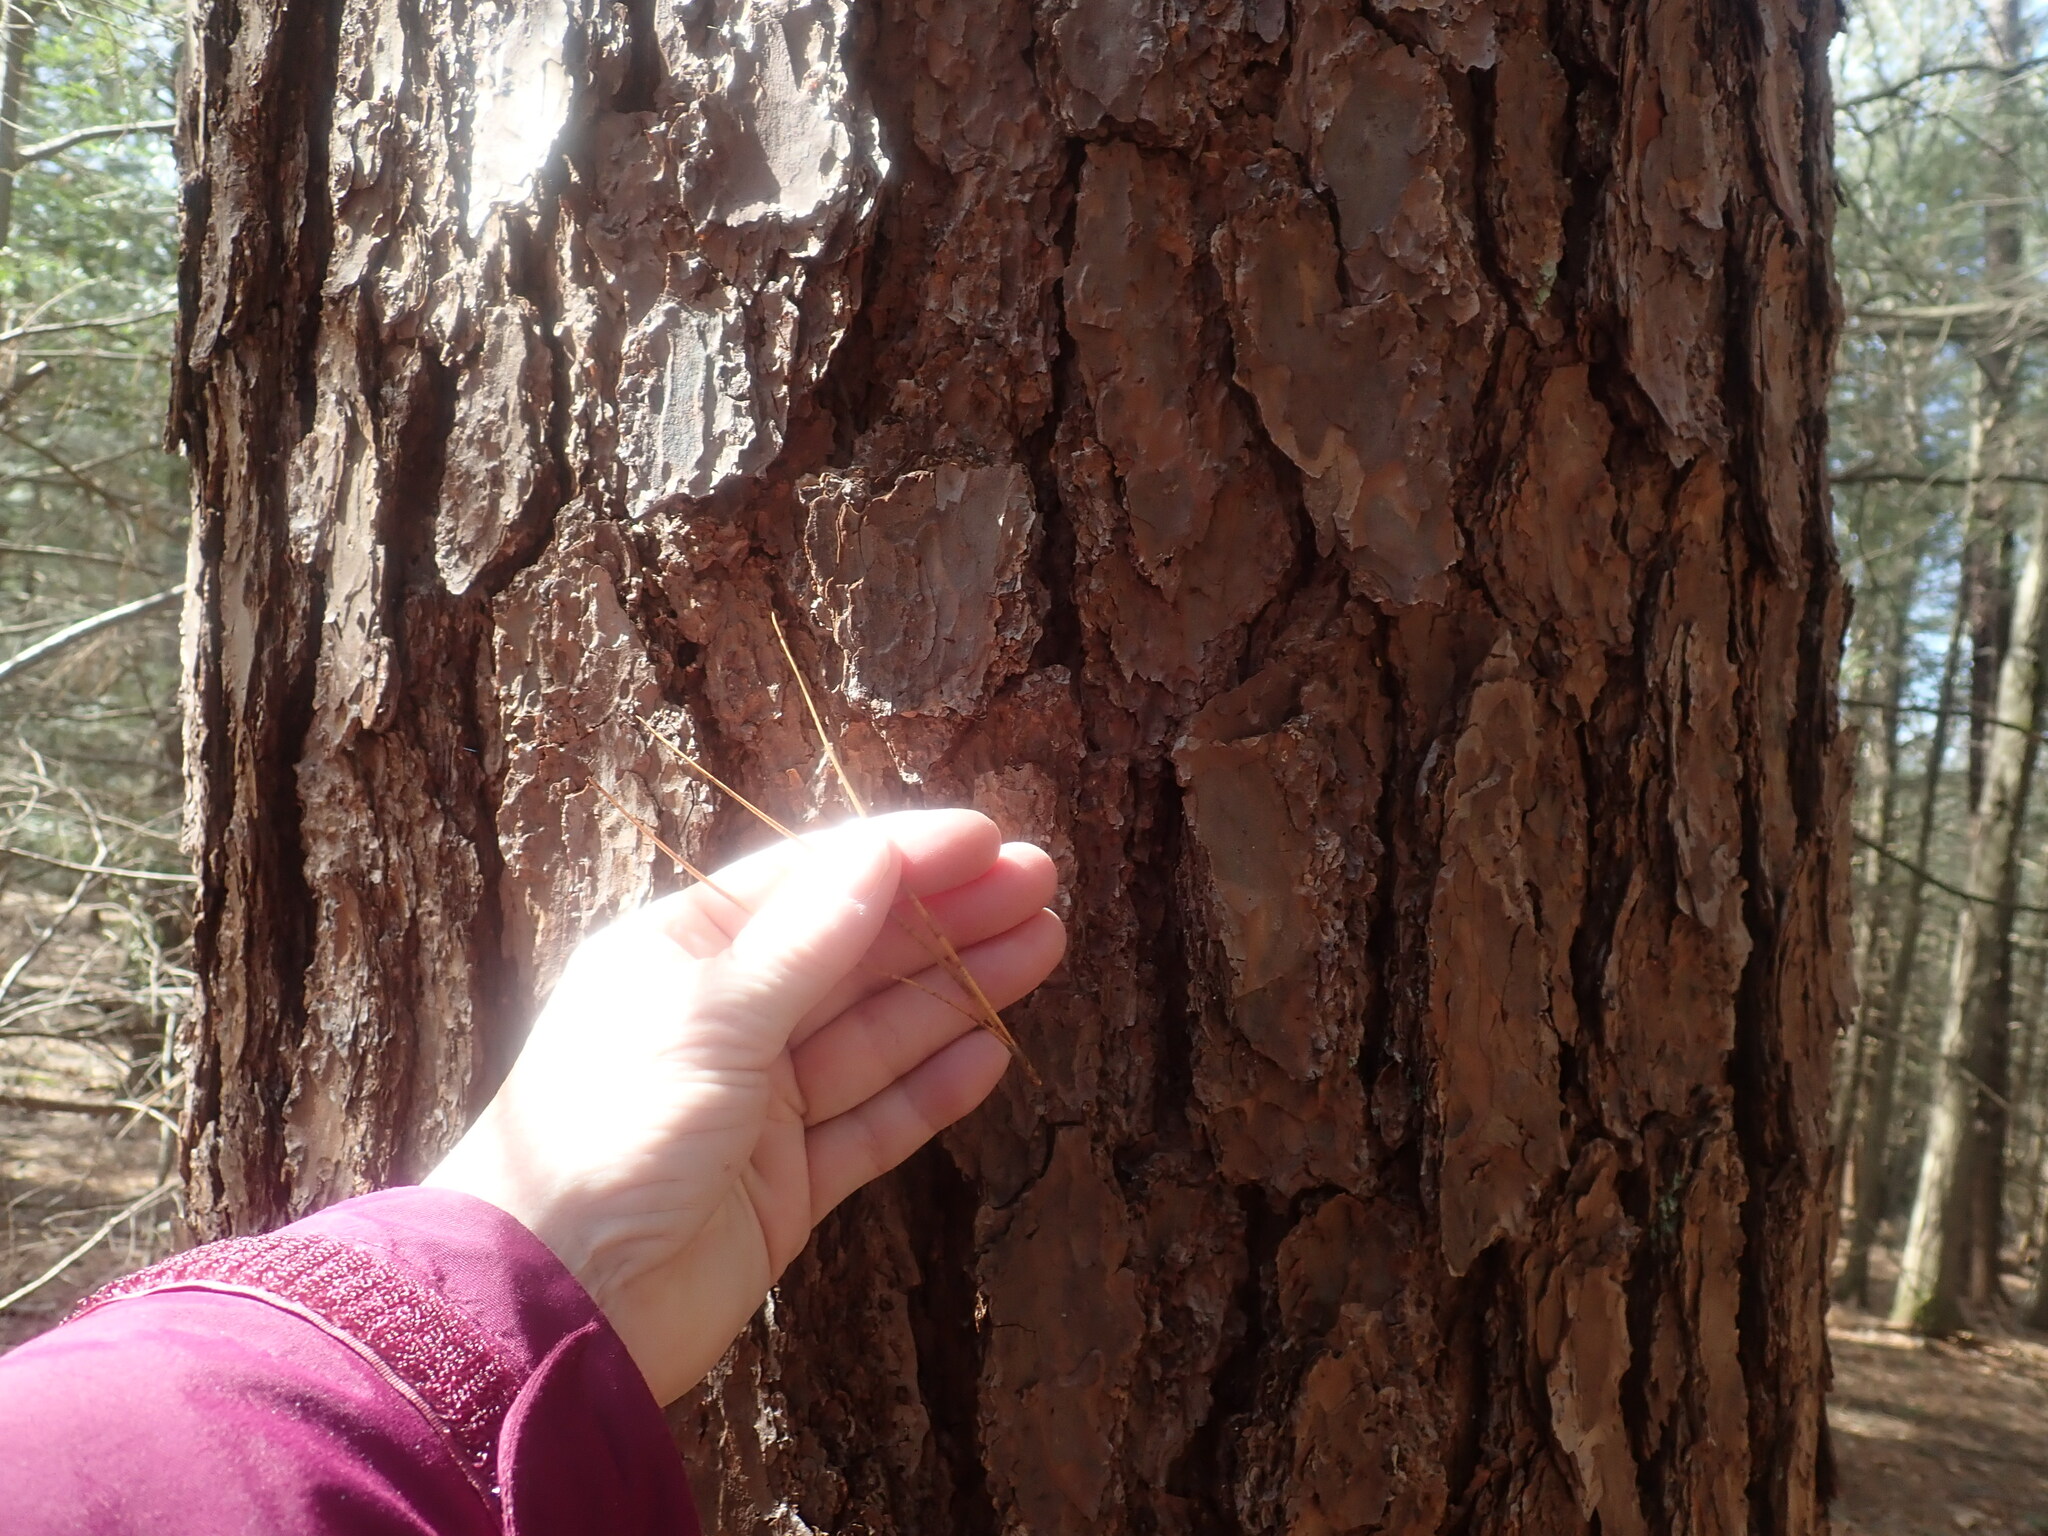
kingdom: Plantae
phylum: Tracheophyta
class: Pinopsida
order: Pinales
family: Pinaceae
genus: Pinus
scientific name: Pinus rigida
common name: Pitch pine
